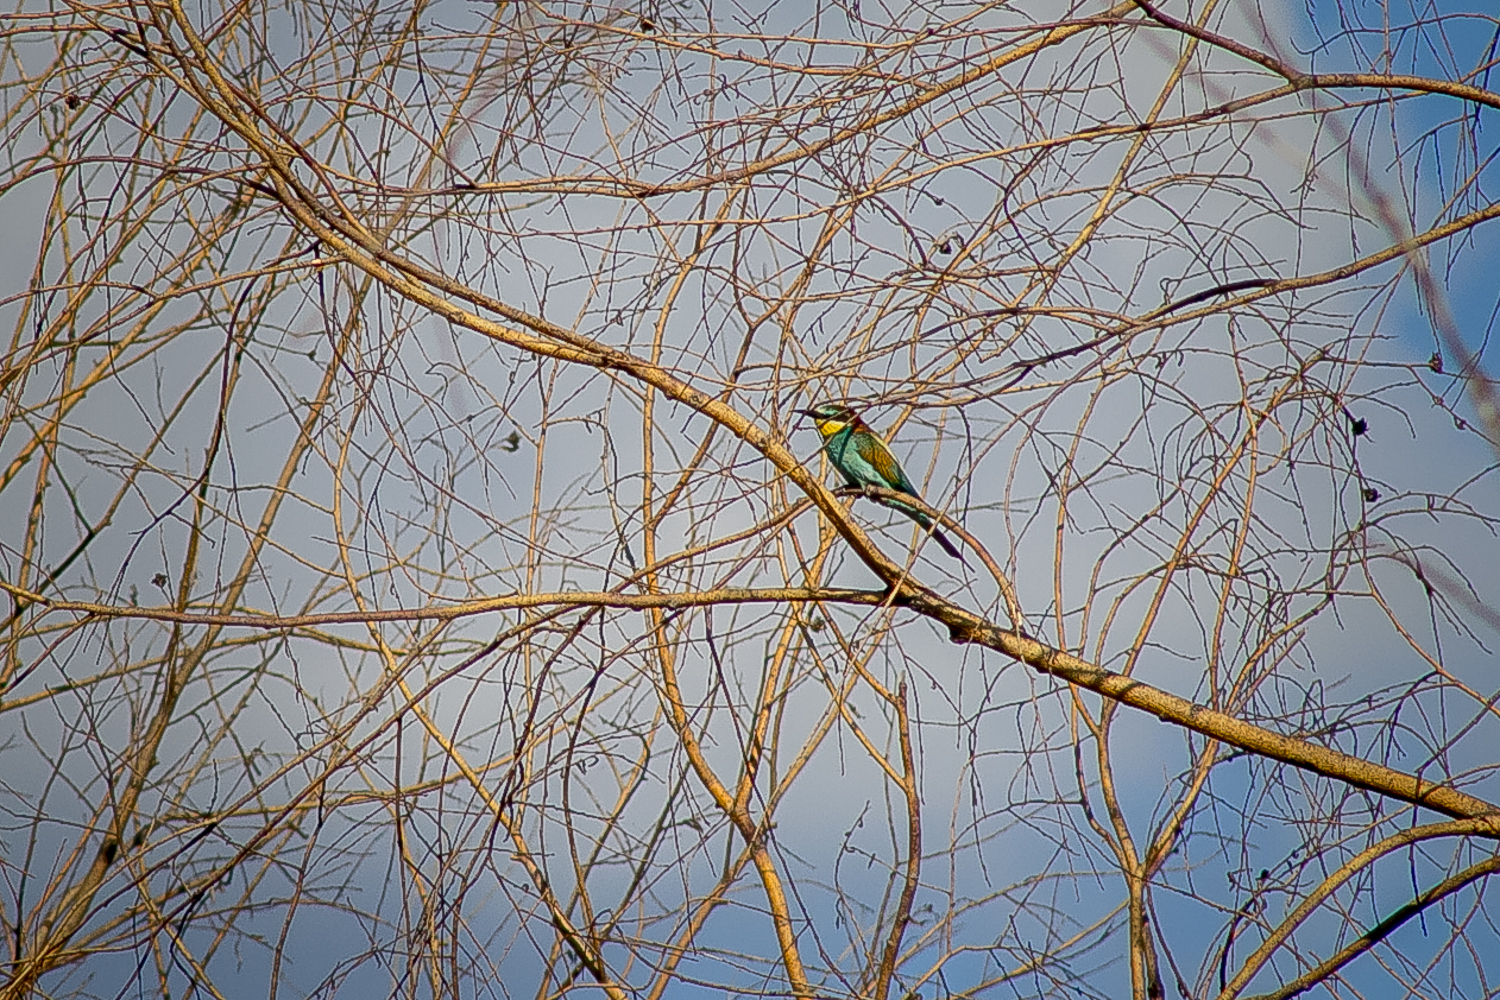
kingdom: Animalia
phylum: Chordata
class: Aves
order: Coraciiformes
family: Meropidae
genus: Merops
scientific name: Merops apiaster
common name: European bee-eater
